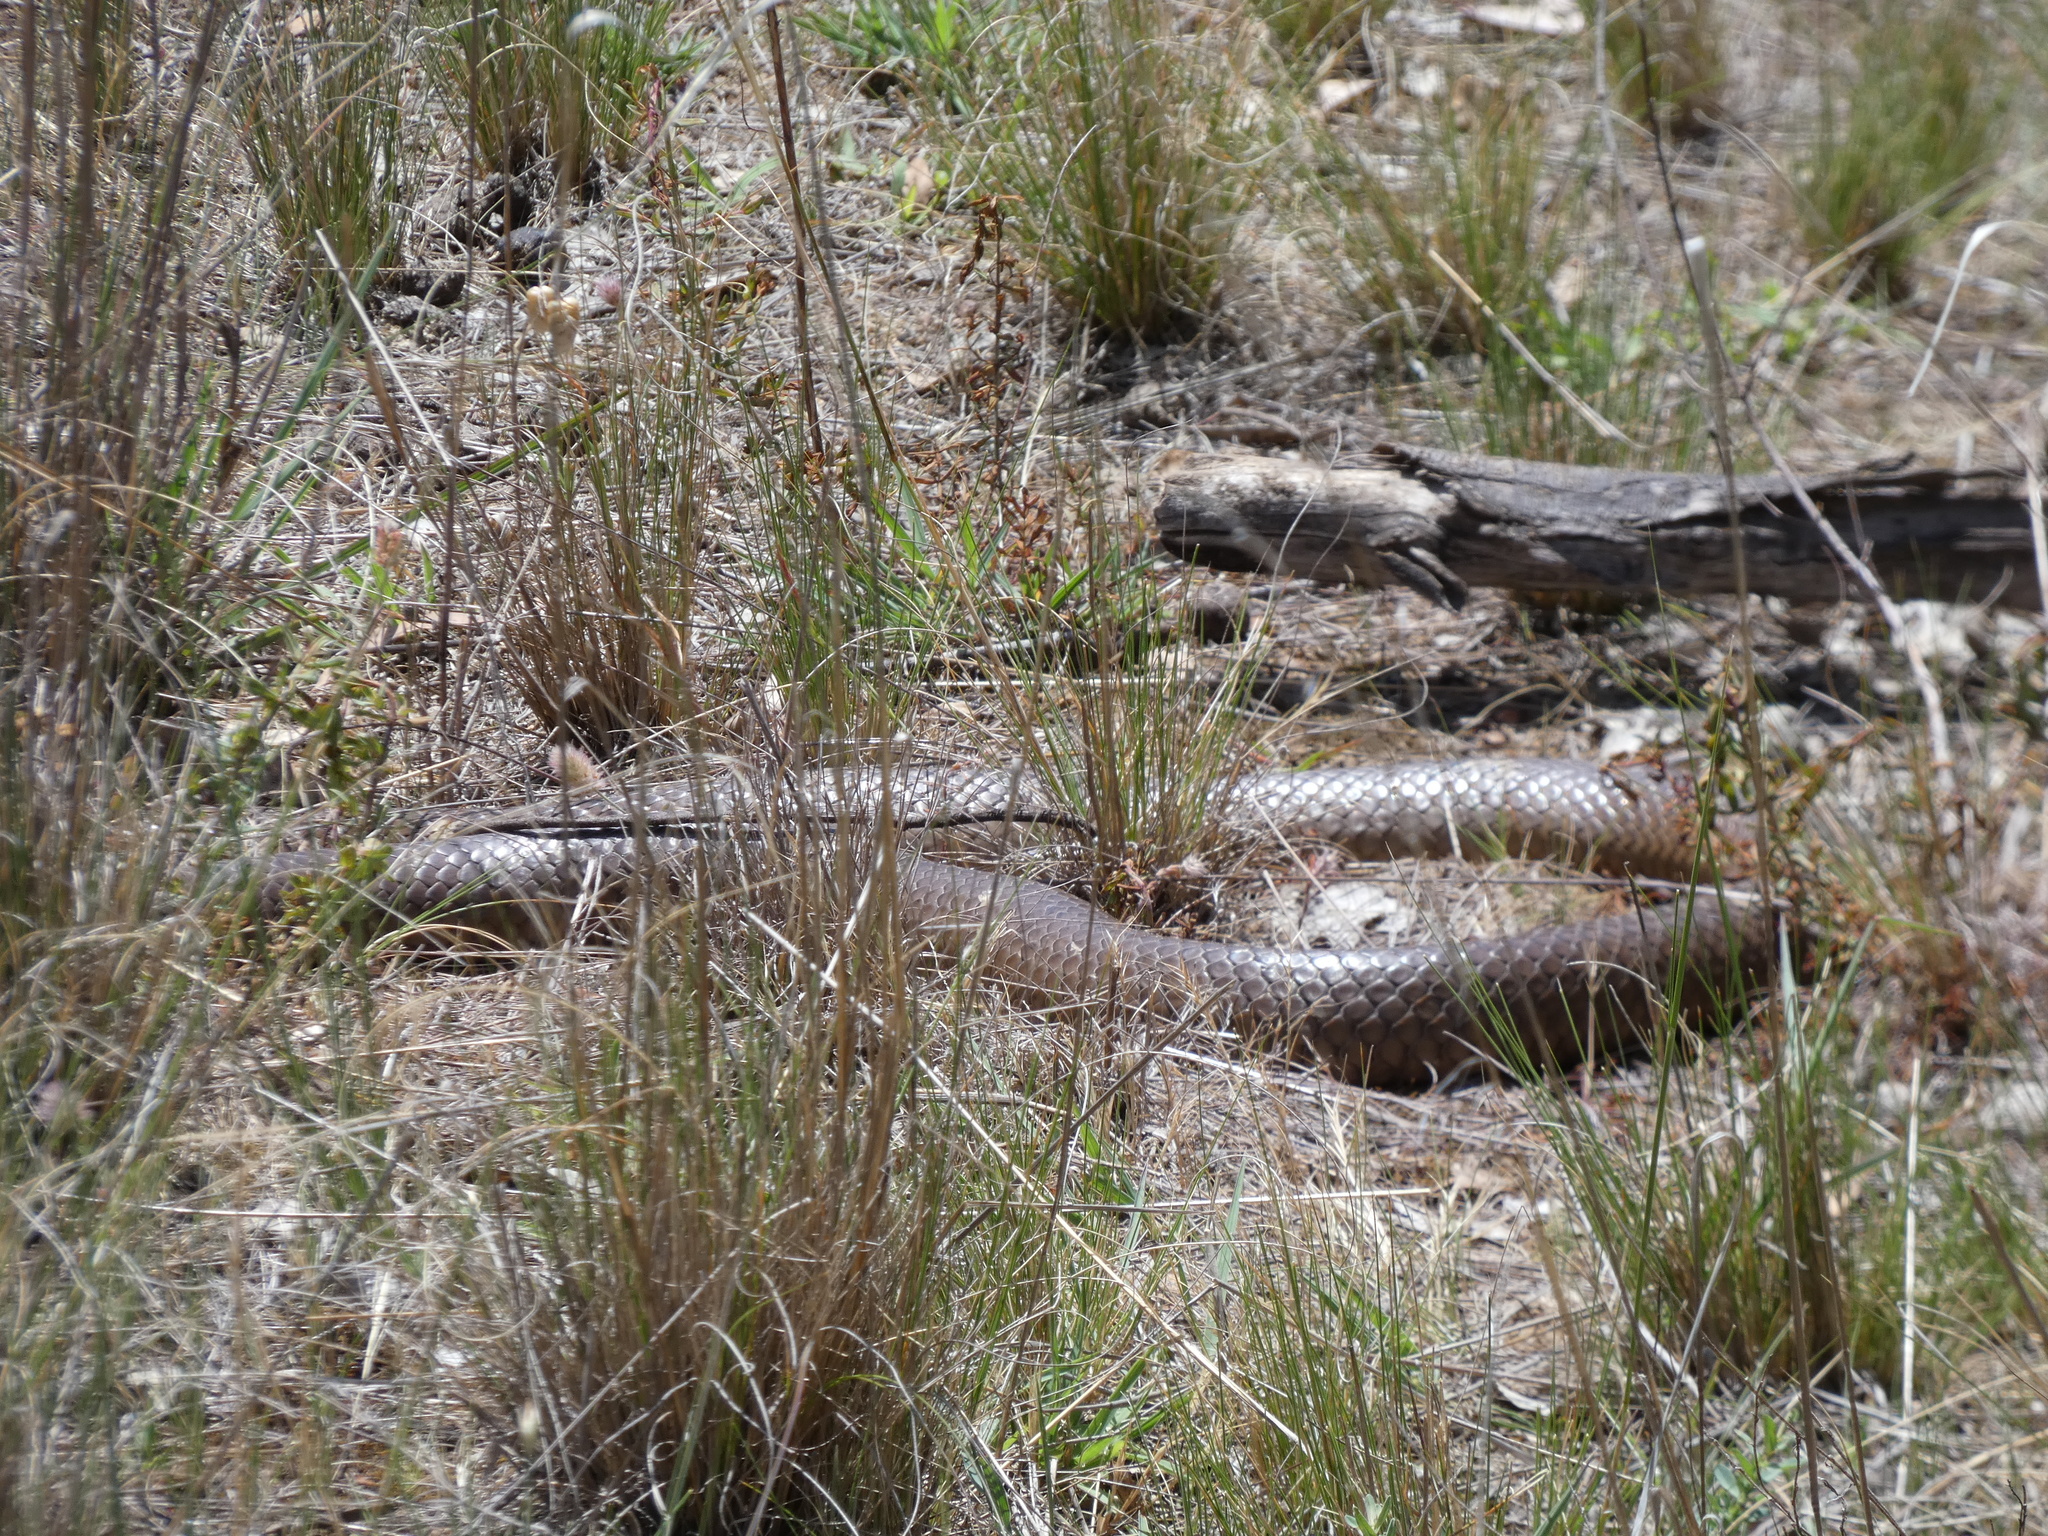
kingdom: Animalia
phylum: Chordata
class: Squamata
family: Elapidae
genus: Pseudonaja
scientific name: Pseudonaja textilis
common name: Eastern brown snake
